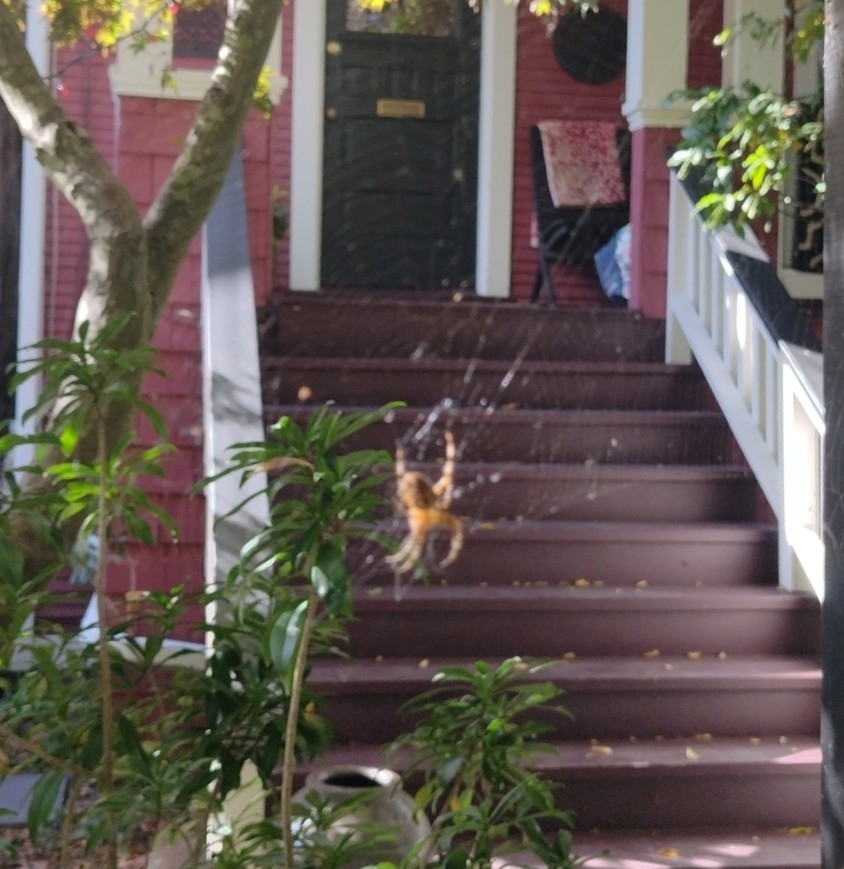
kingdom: Animalia
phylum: Arthropoda
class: Arachnida
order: Araneae
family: Araneidae
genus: Araneus
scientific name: Araneus diadematus
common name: Cross orbweaver
